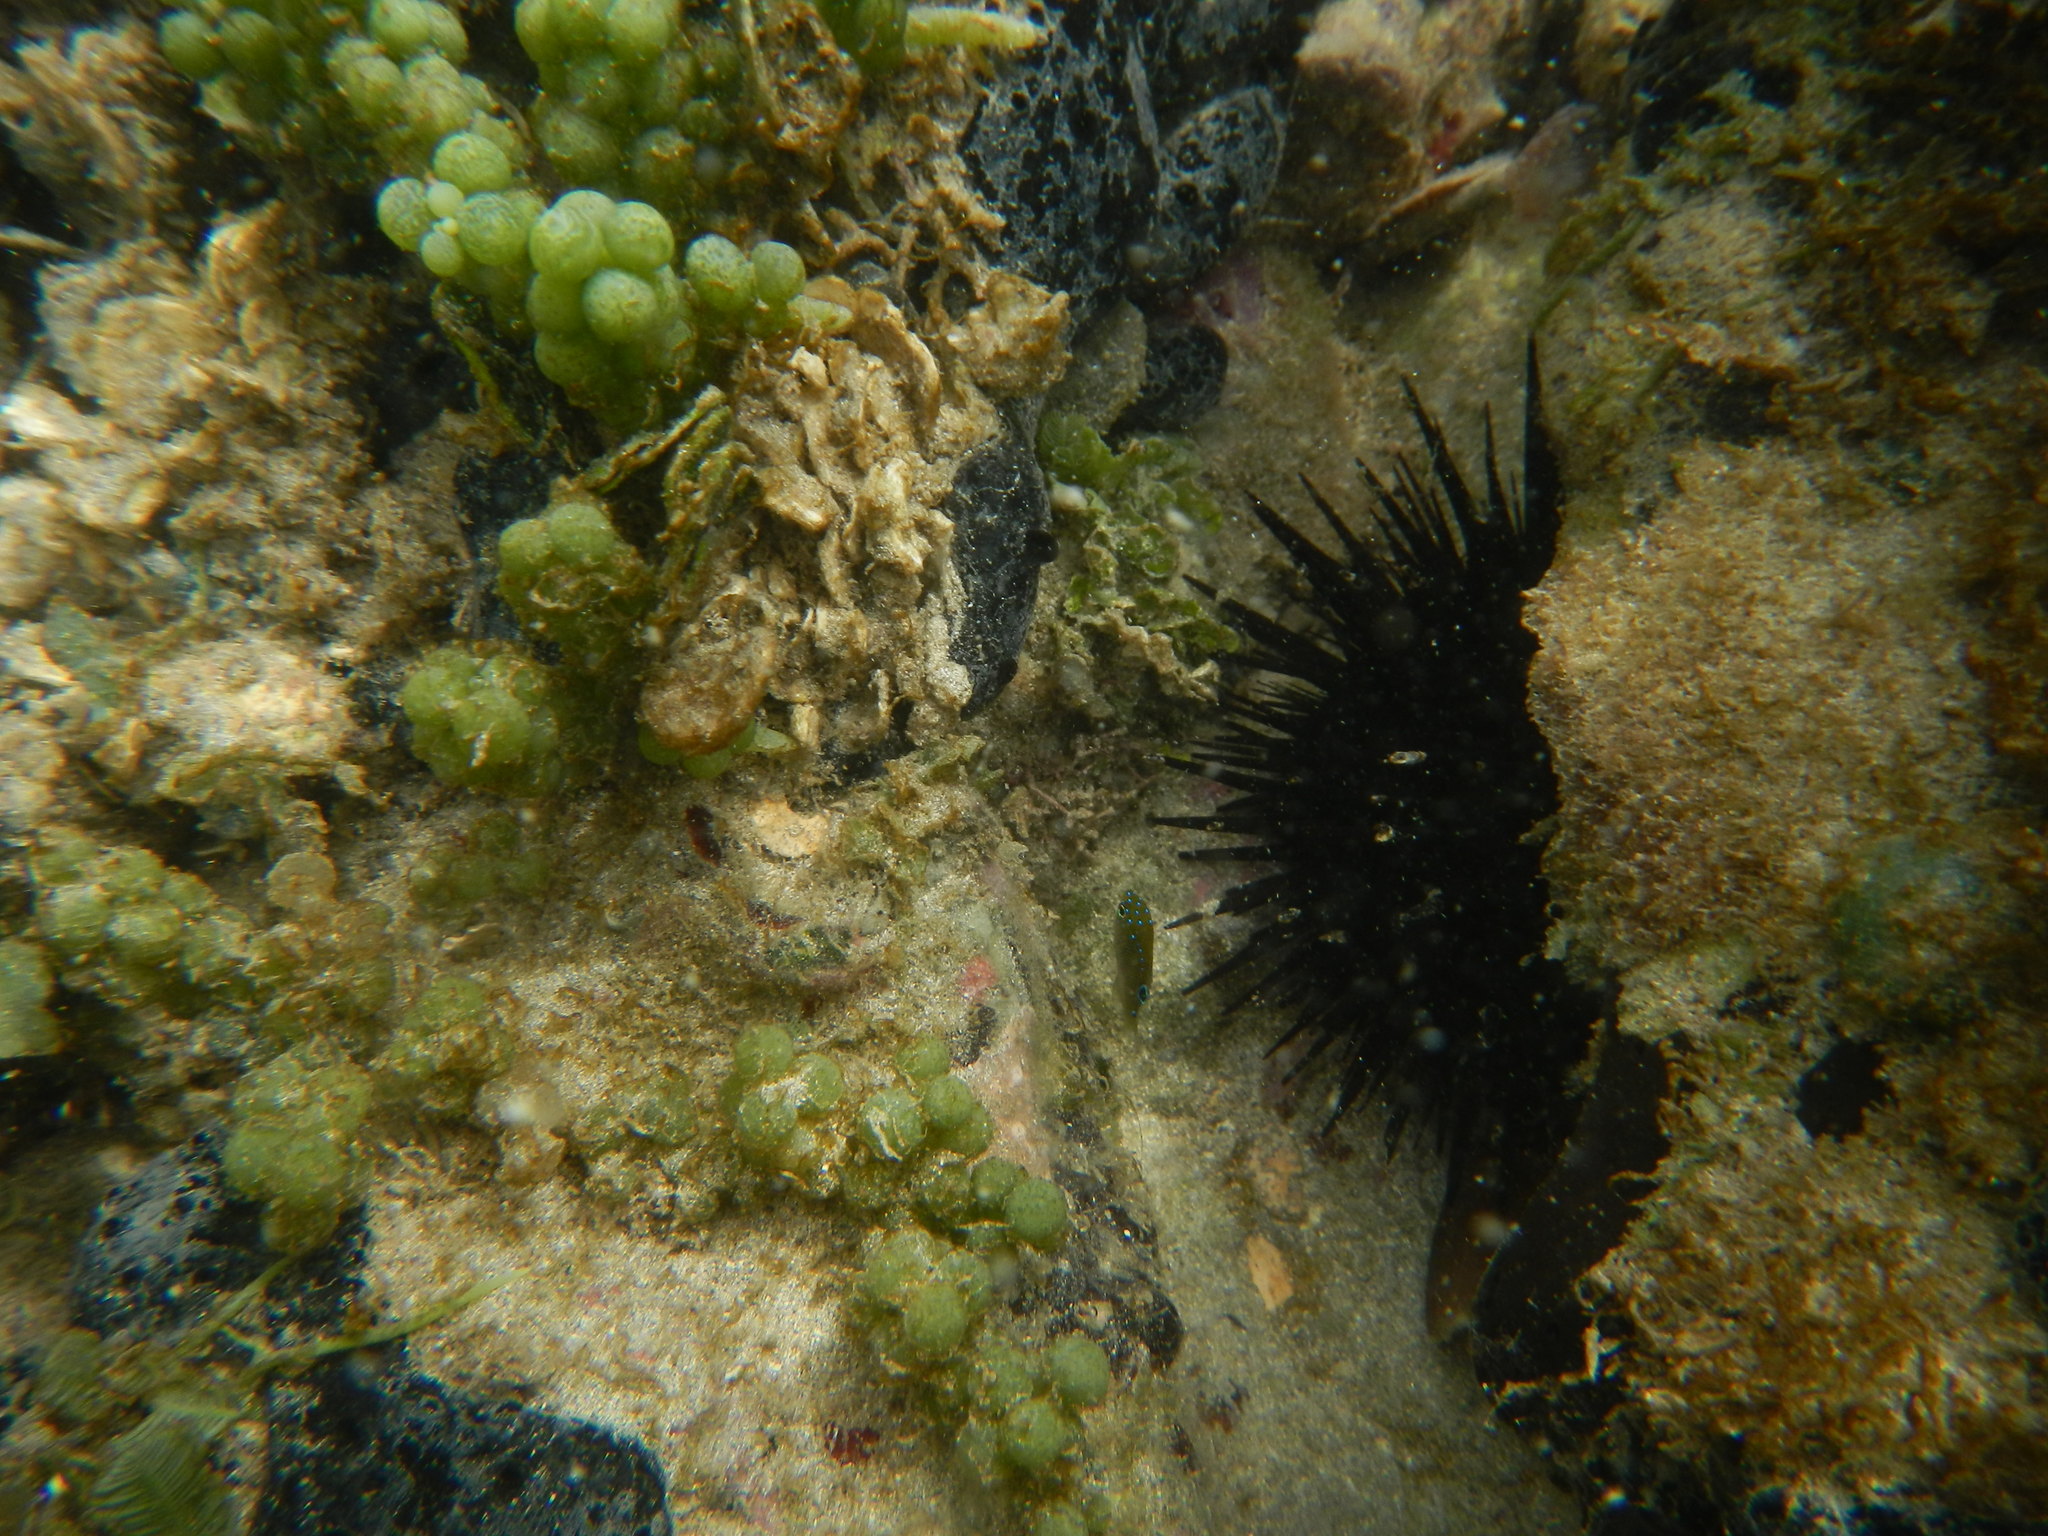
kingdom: Animalia
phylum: Echinodermata
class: Echinoidea
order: Camarodonta
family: Echinometridae
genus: Echinometra
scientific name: Echinometra viridis
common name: Reef urchin
